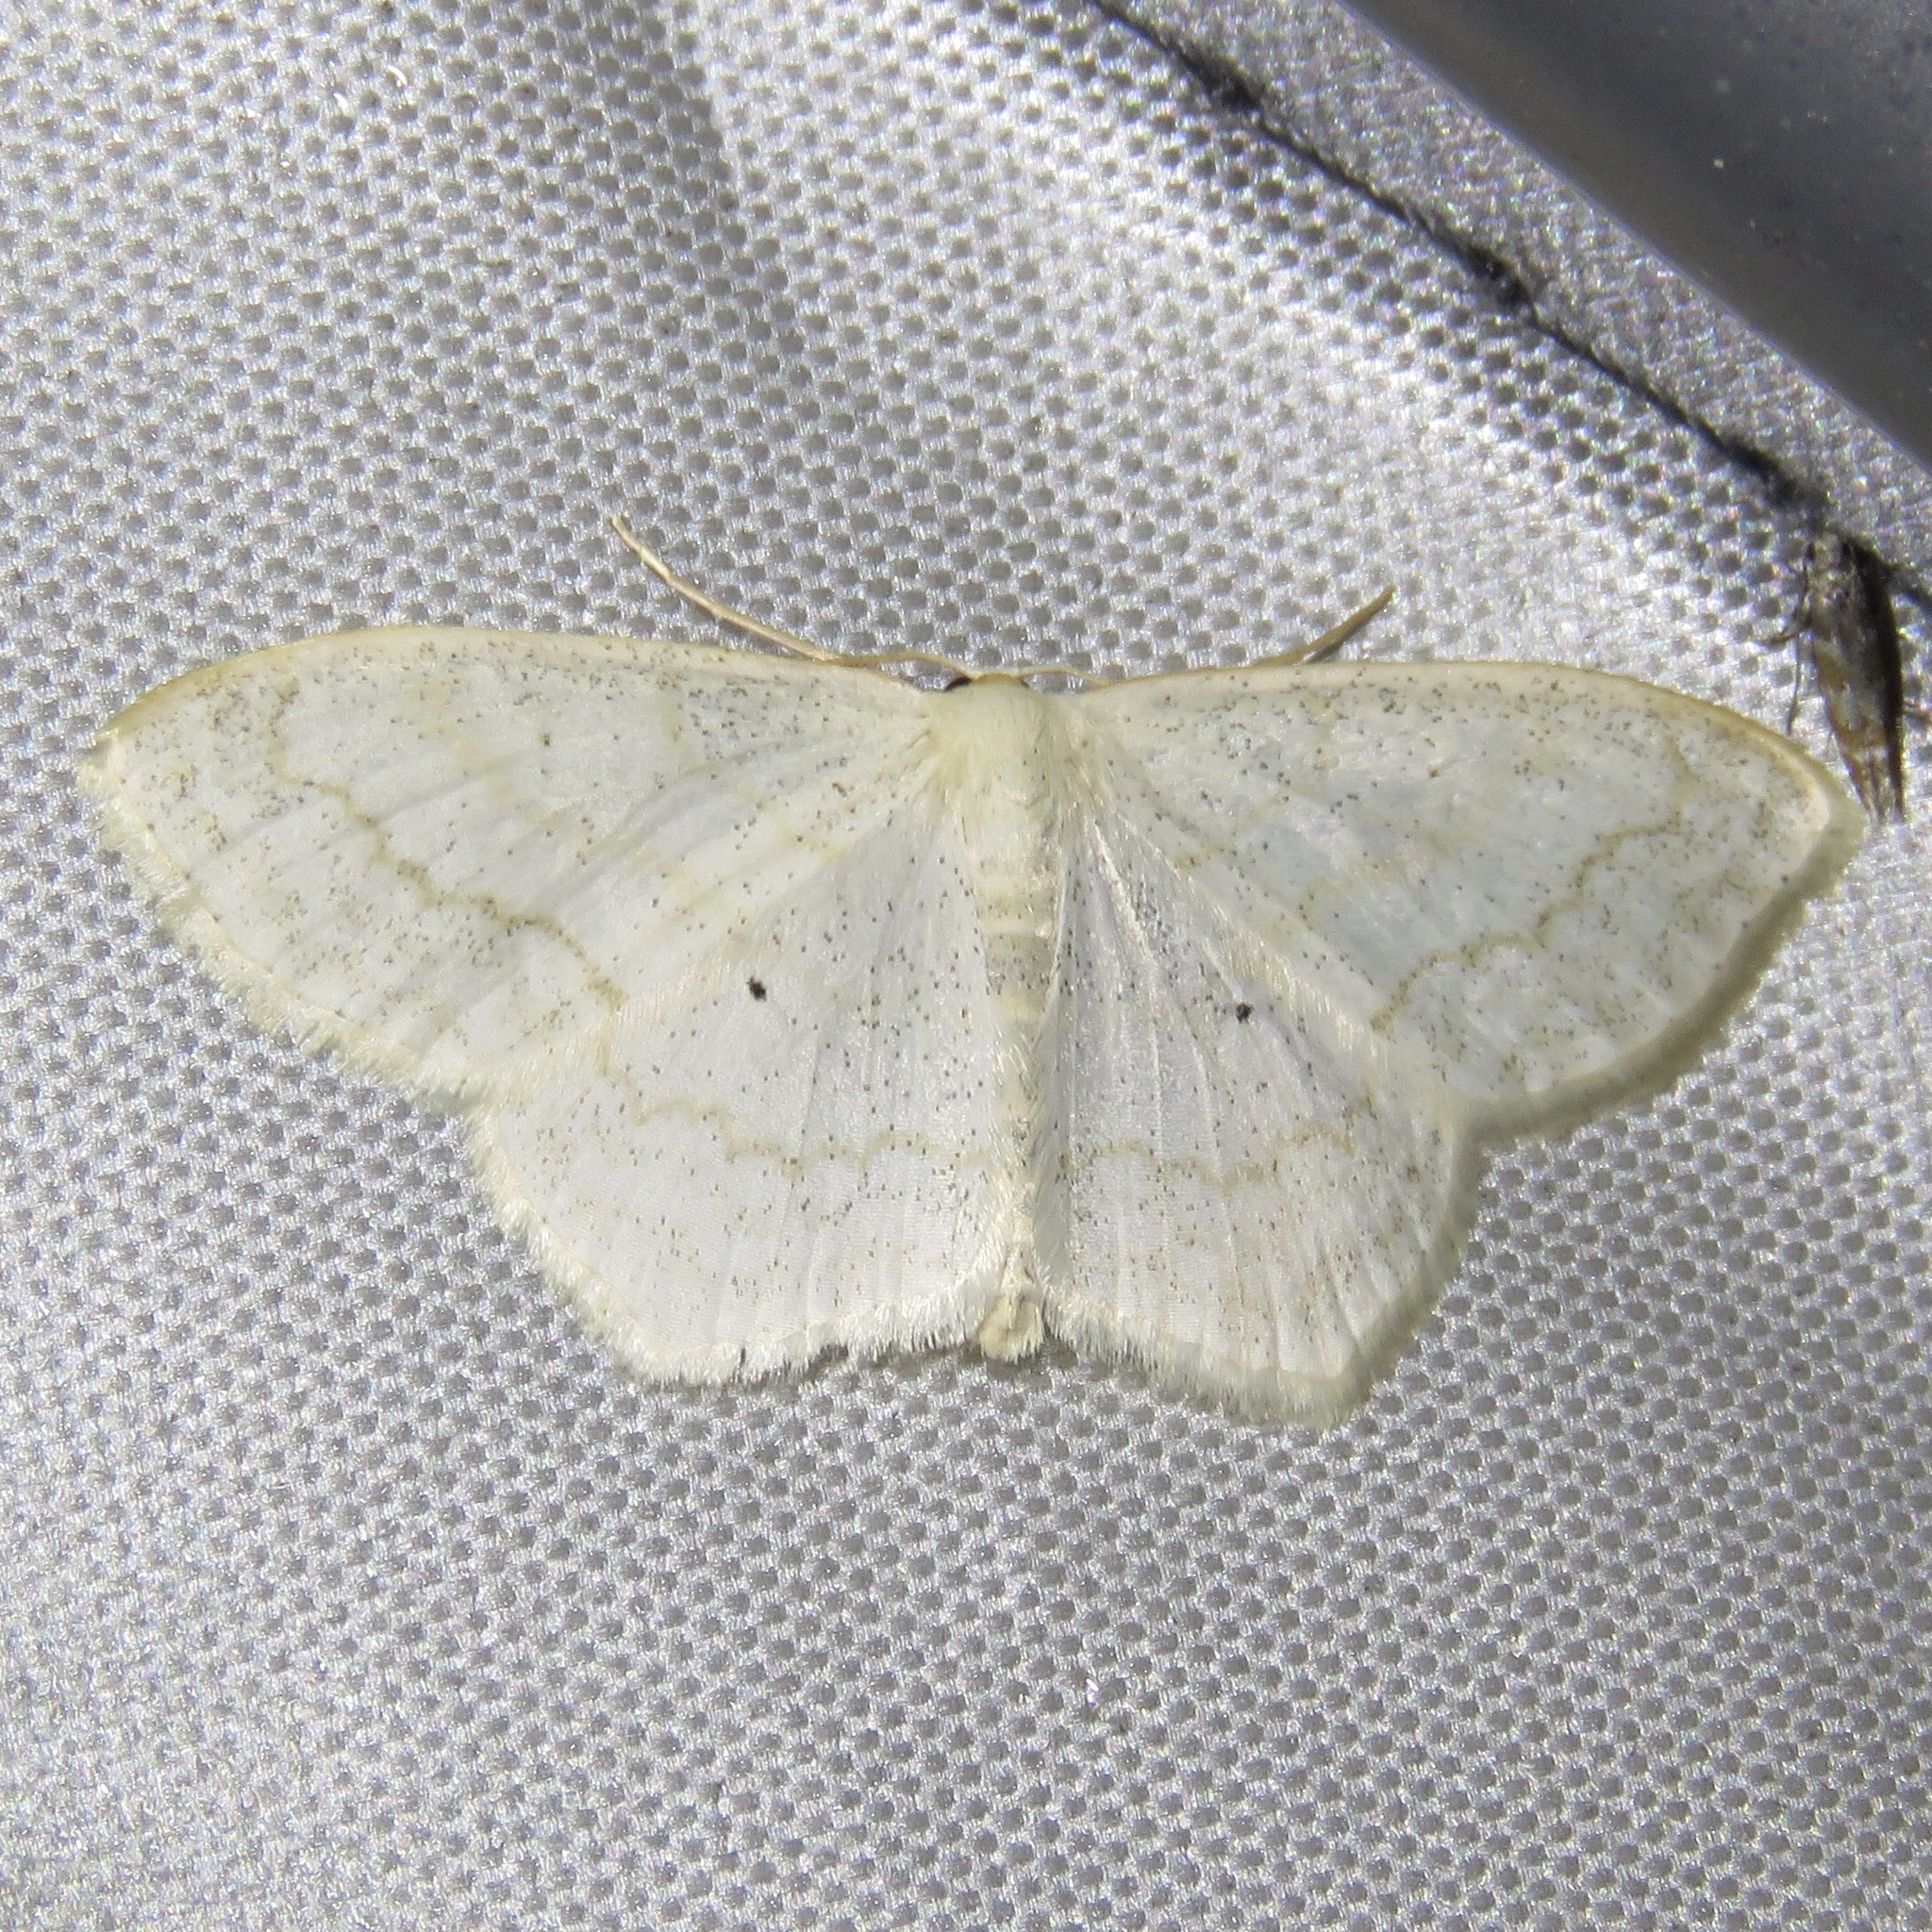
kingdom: Animalia
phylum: Arthropoda
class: Insecta
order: Lepidoptera
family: Geometridae
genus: Scopula
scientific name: Scopula limboundata
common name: Large lace border
